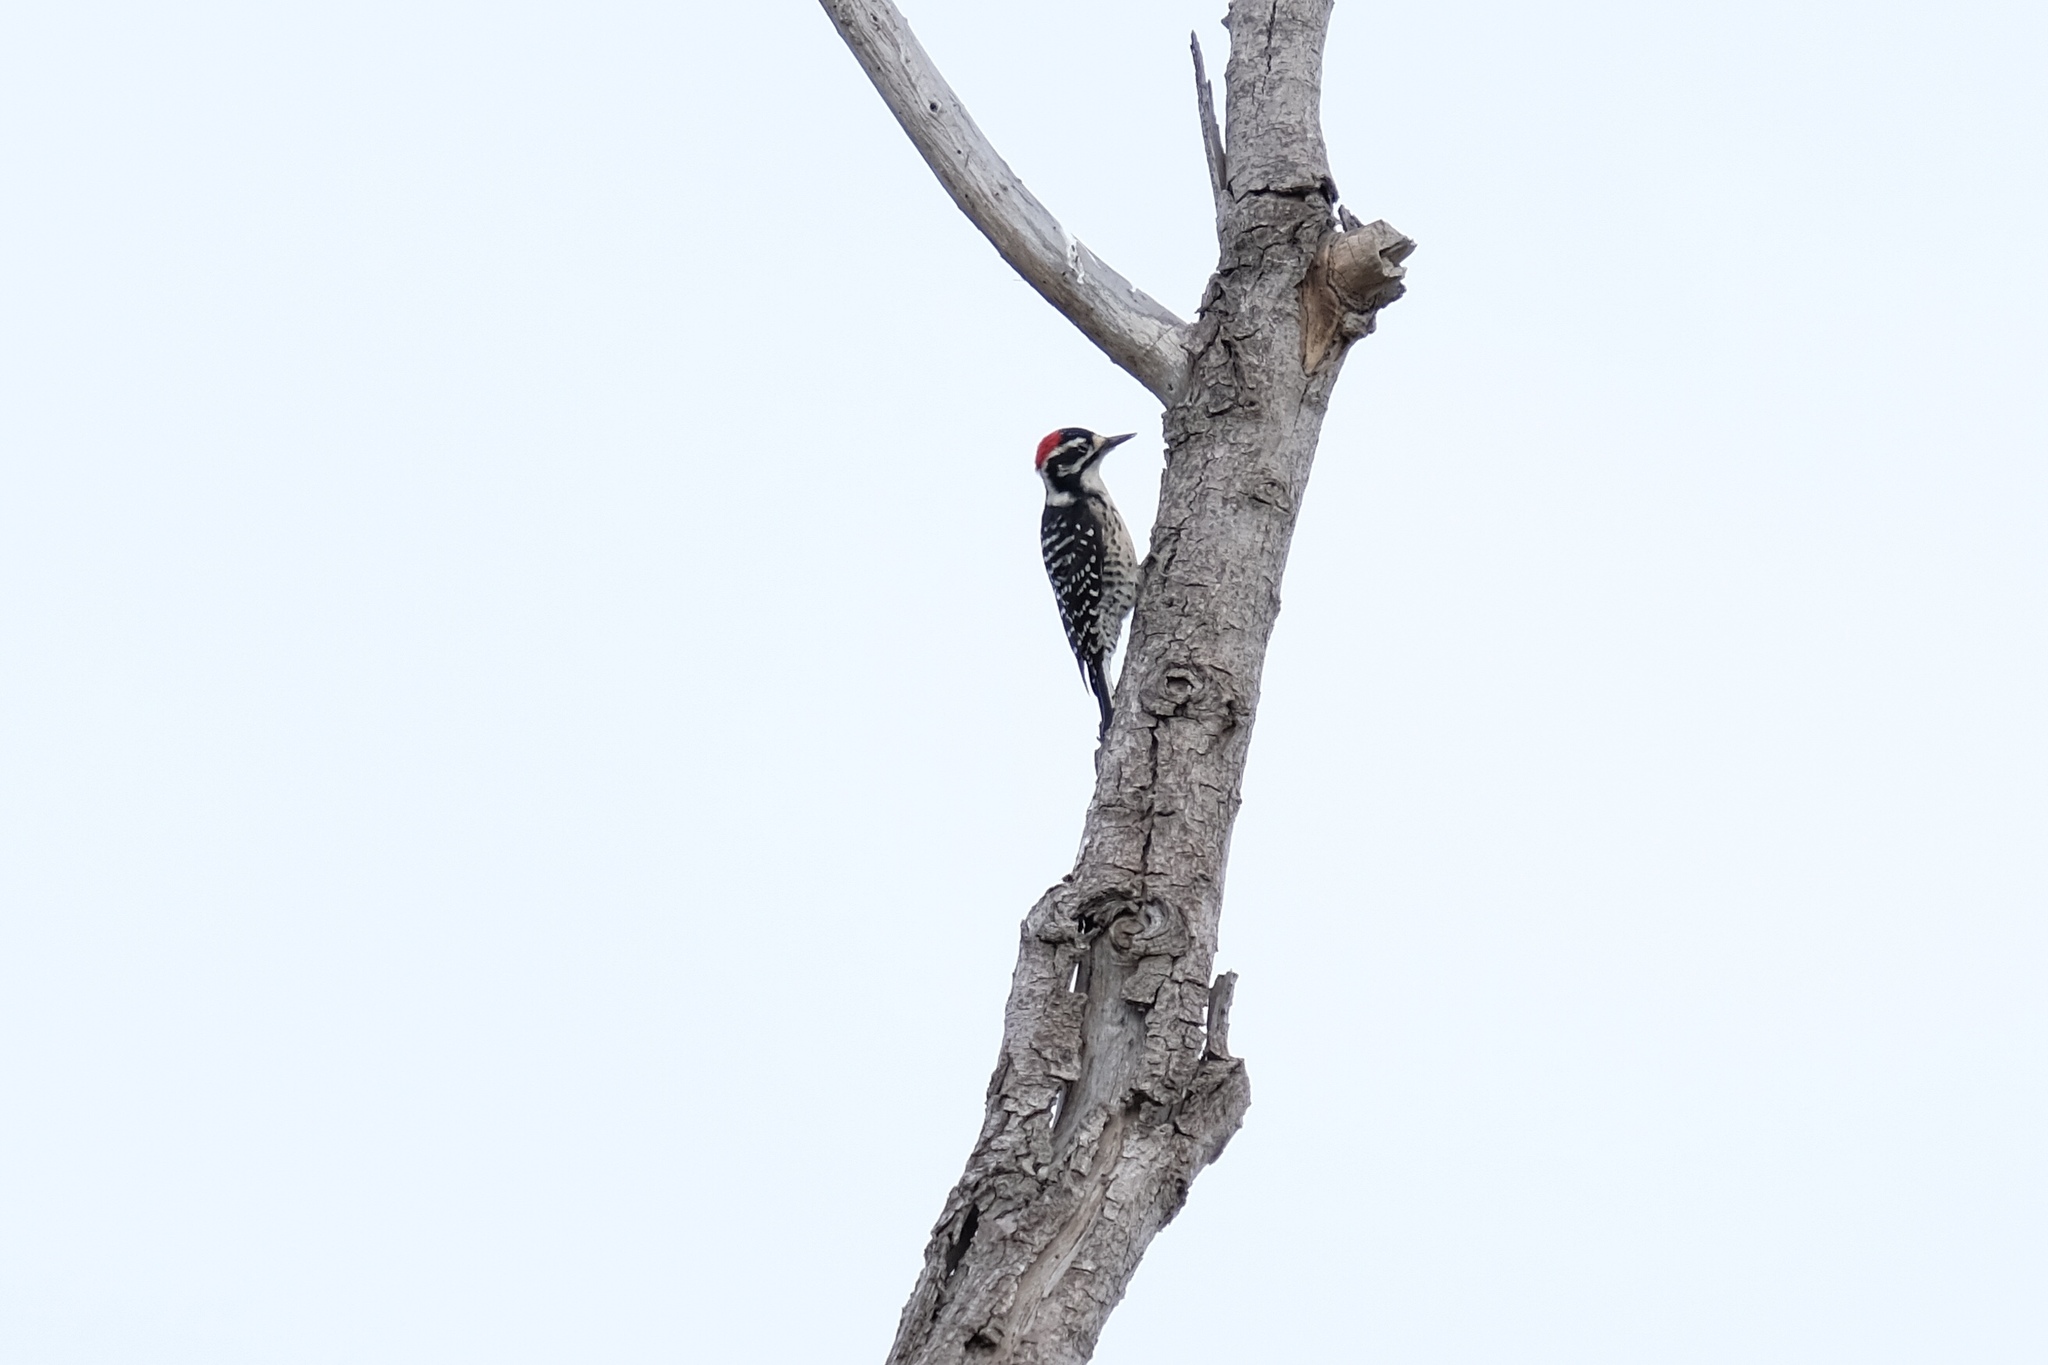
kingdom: Animalia
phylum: Chordata
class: Aves
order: Piciformes
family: Picidae
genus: Dryobates
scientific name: Dryobates nuttallii
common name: Nuttall's woodpecker
